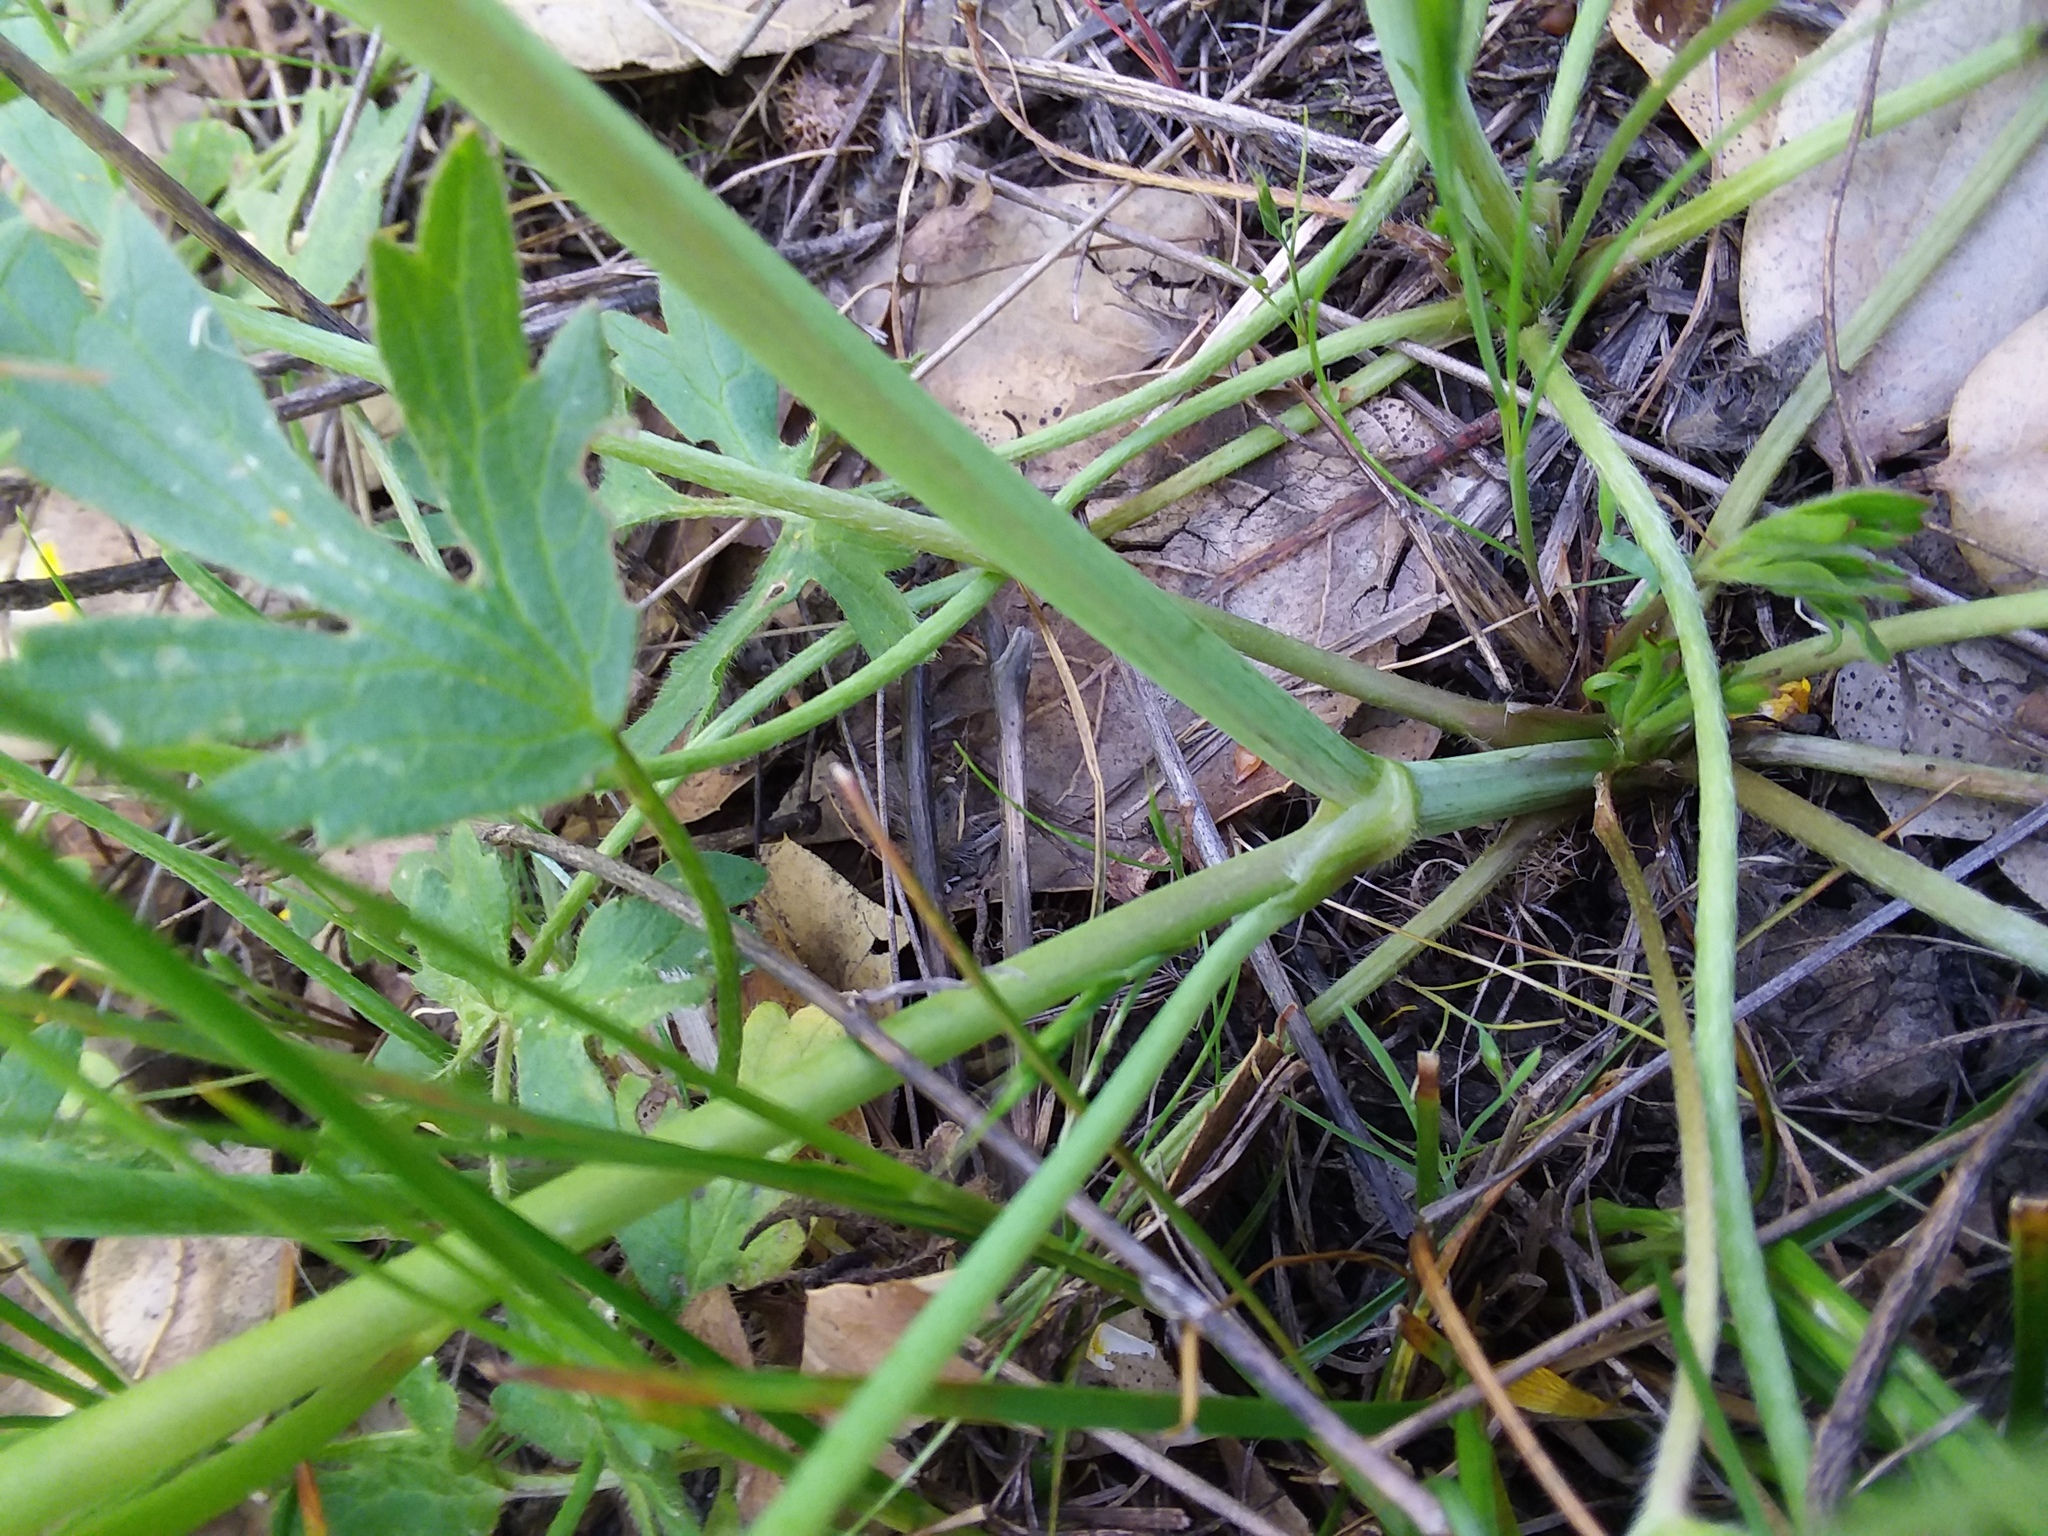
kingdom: Plantae
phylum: Tracheophyta
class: Magnoliopsida
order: Ranunculales
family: Ranunculaceae
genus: Ranunculus
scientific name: Ranunculus californicus
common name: California buttercup
